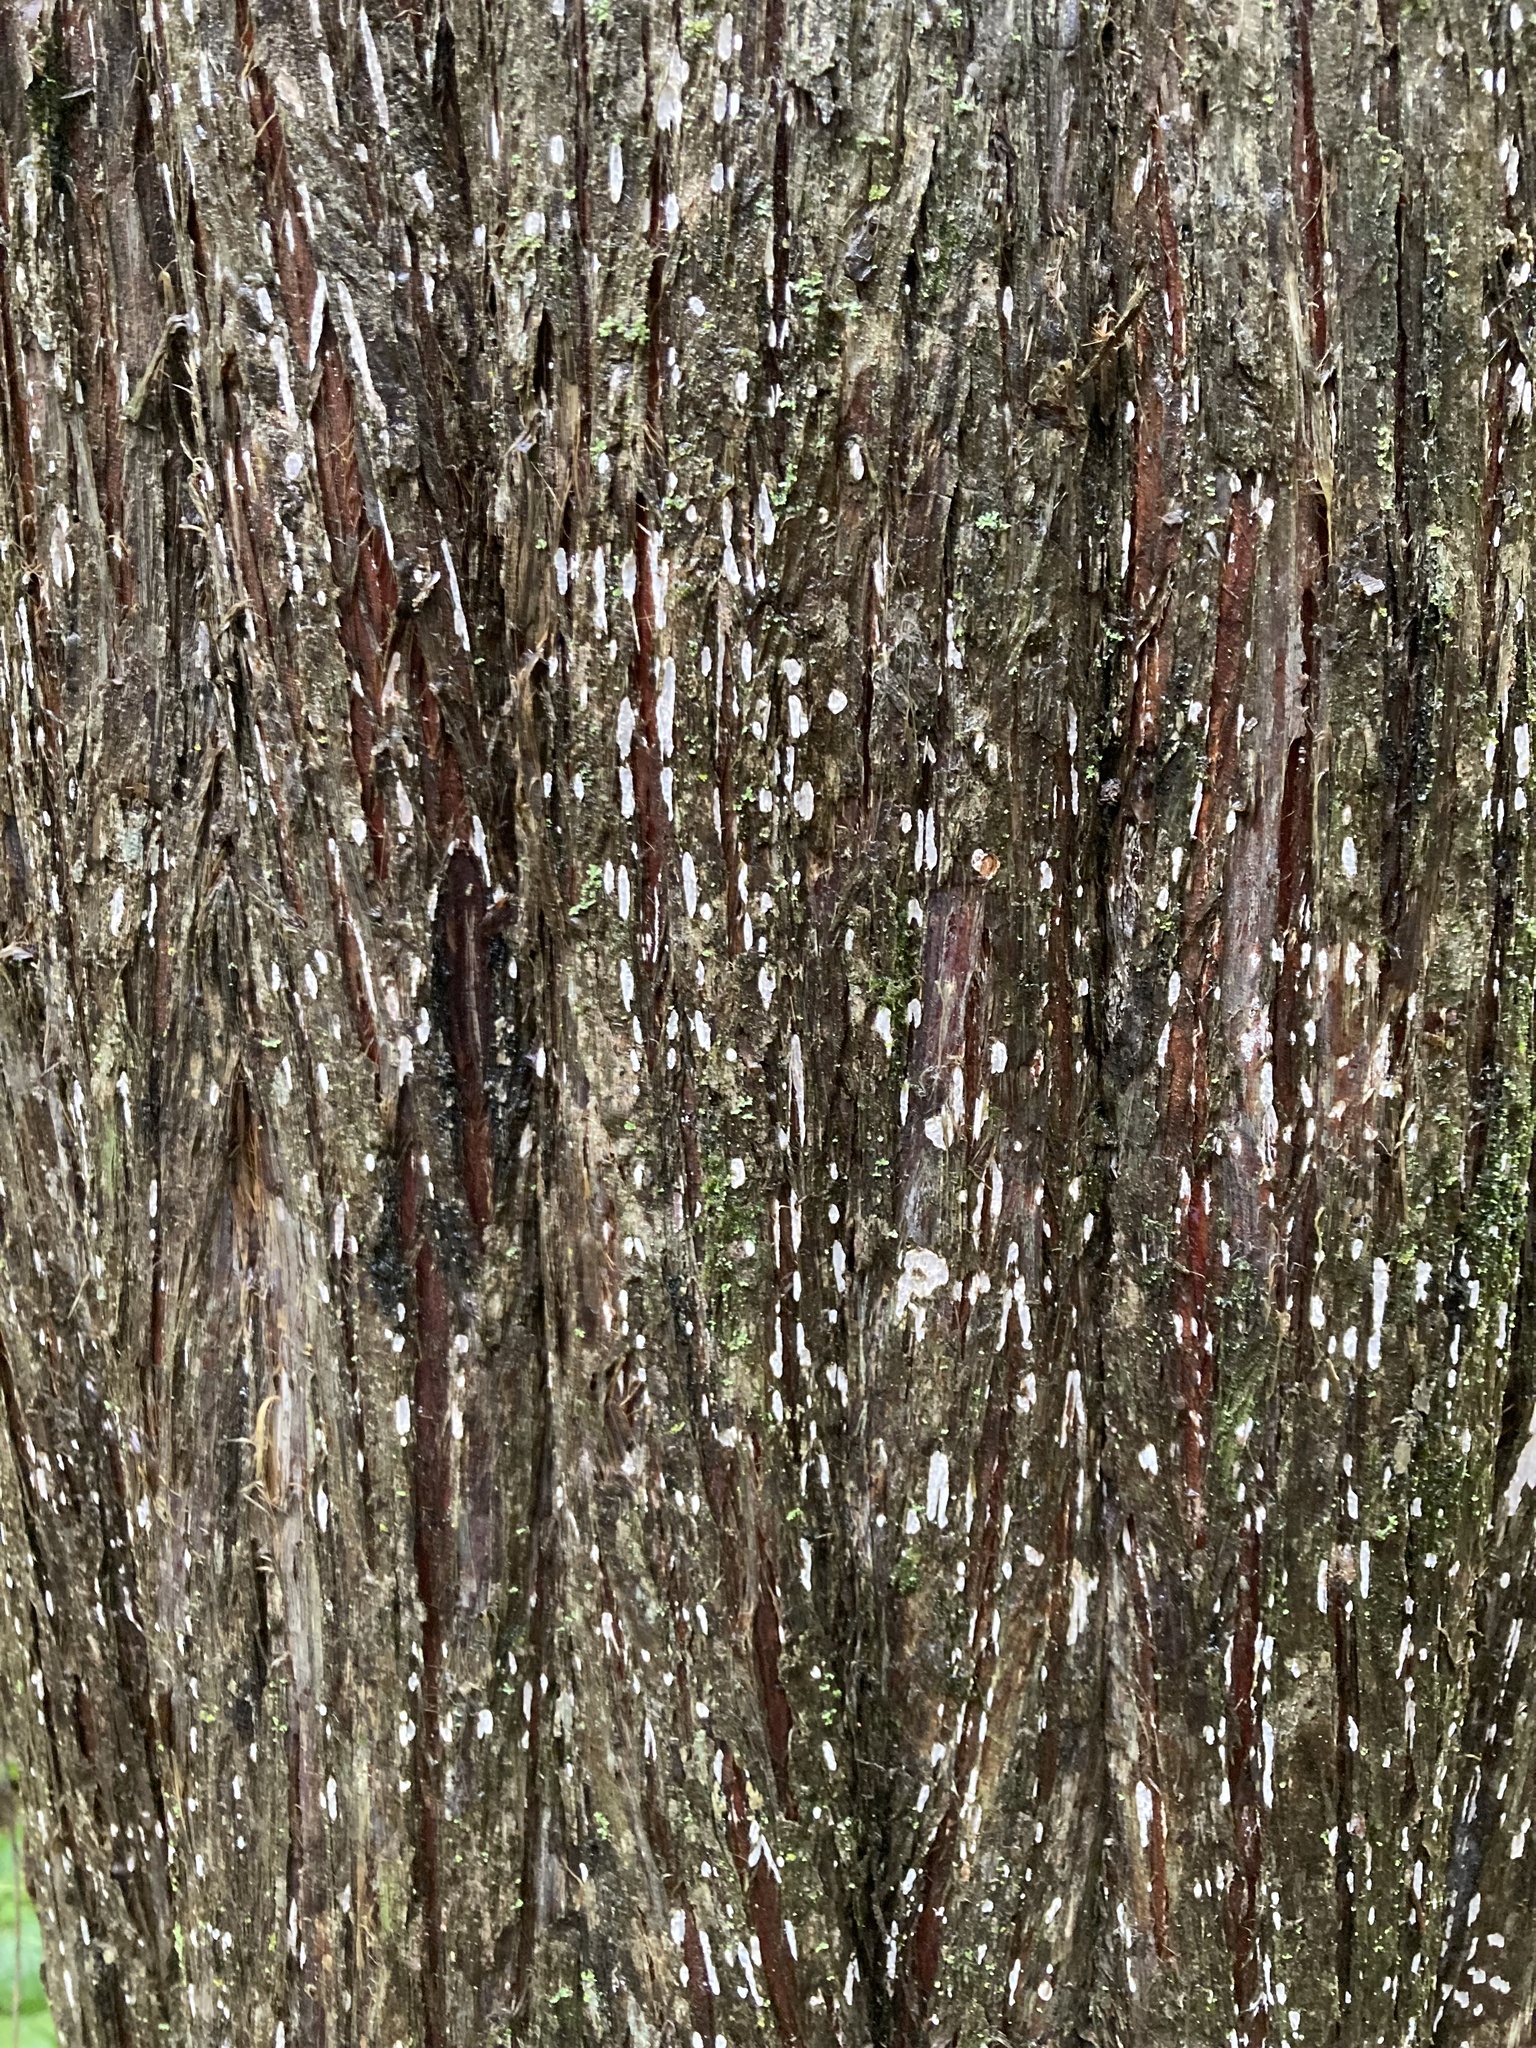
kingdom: Plantae
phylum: Tracheophyta
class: Pinopsida
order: Pinales
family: Cupressaceae
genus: Juniperus
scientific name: Juniperus virginiana
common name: Red juniper
